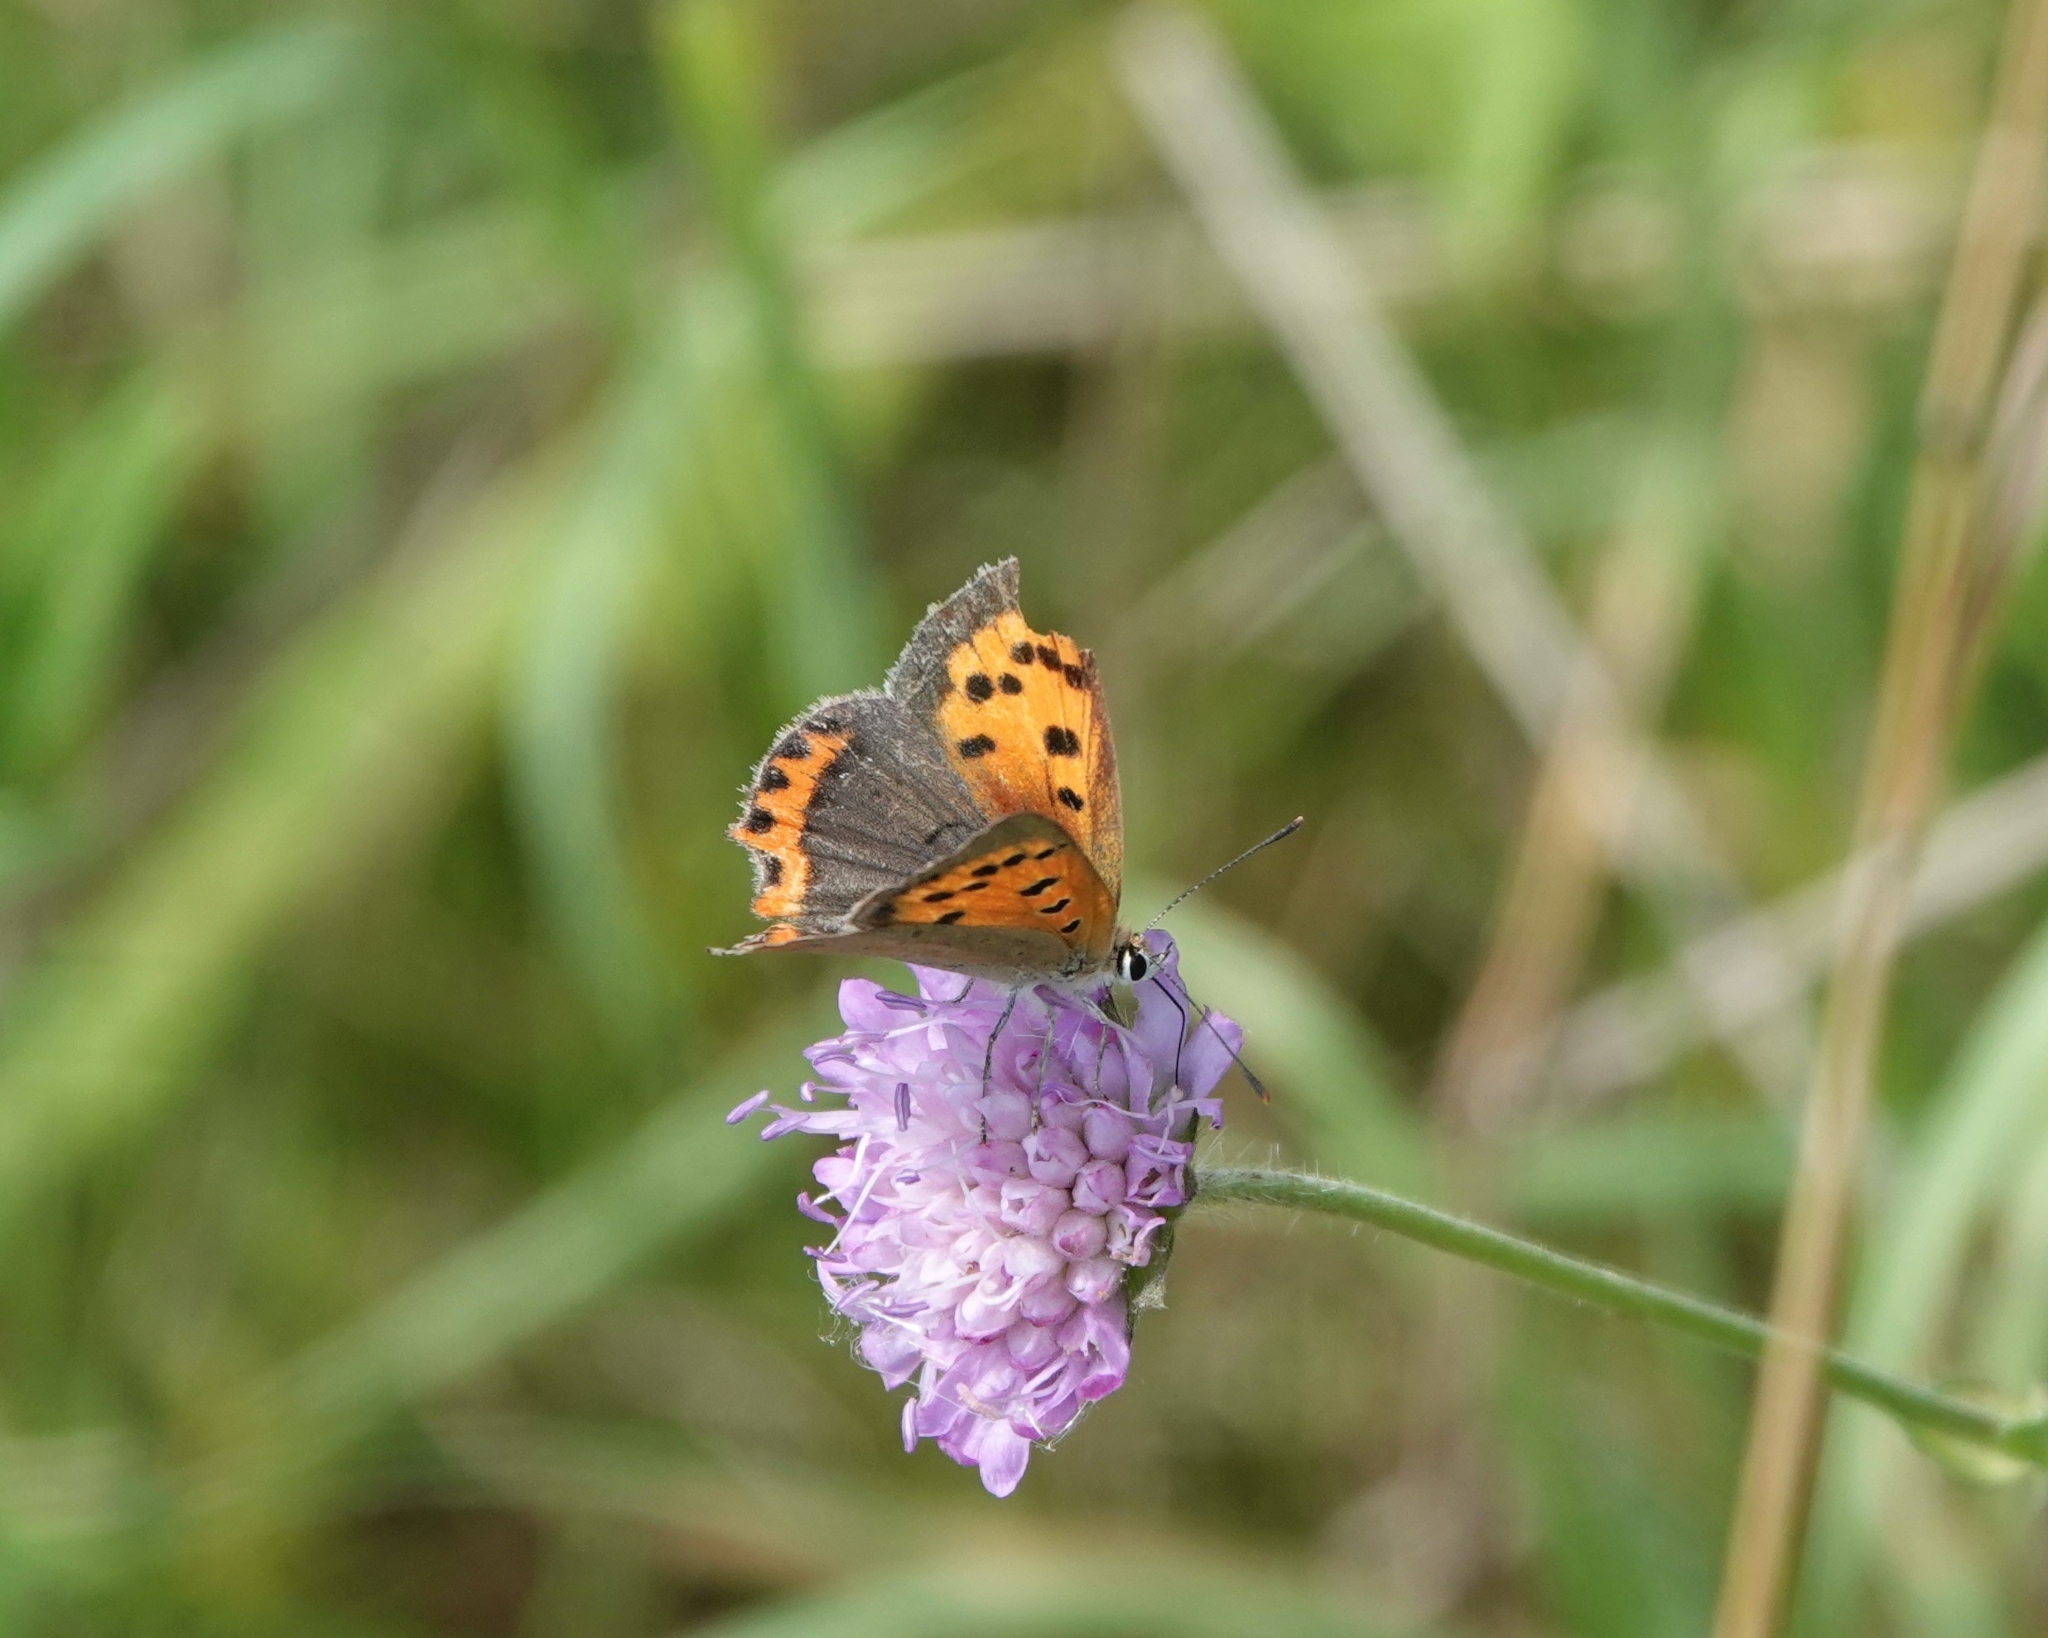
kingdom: Animalia
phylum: Arthropoda
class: Insecta
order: Lepidoptera
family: Lycaenidae
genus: Lycaena
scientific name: Lycaena phlaeas
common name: Small copper
